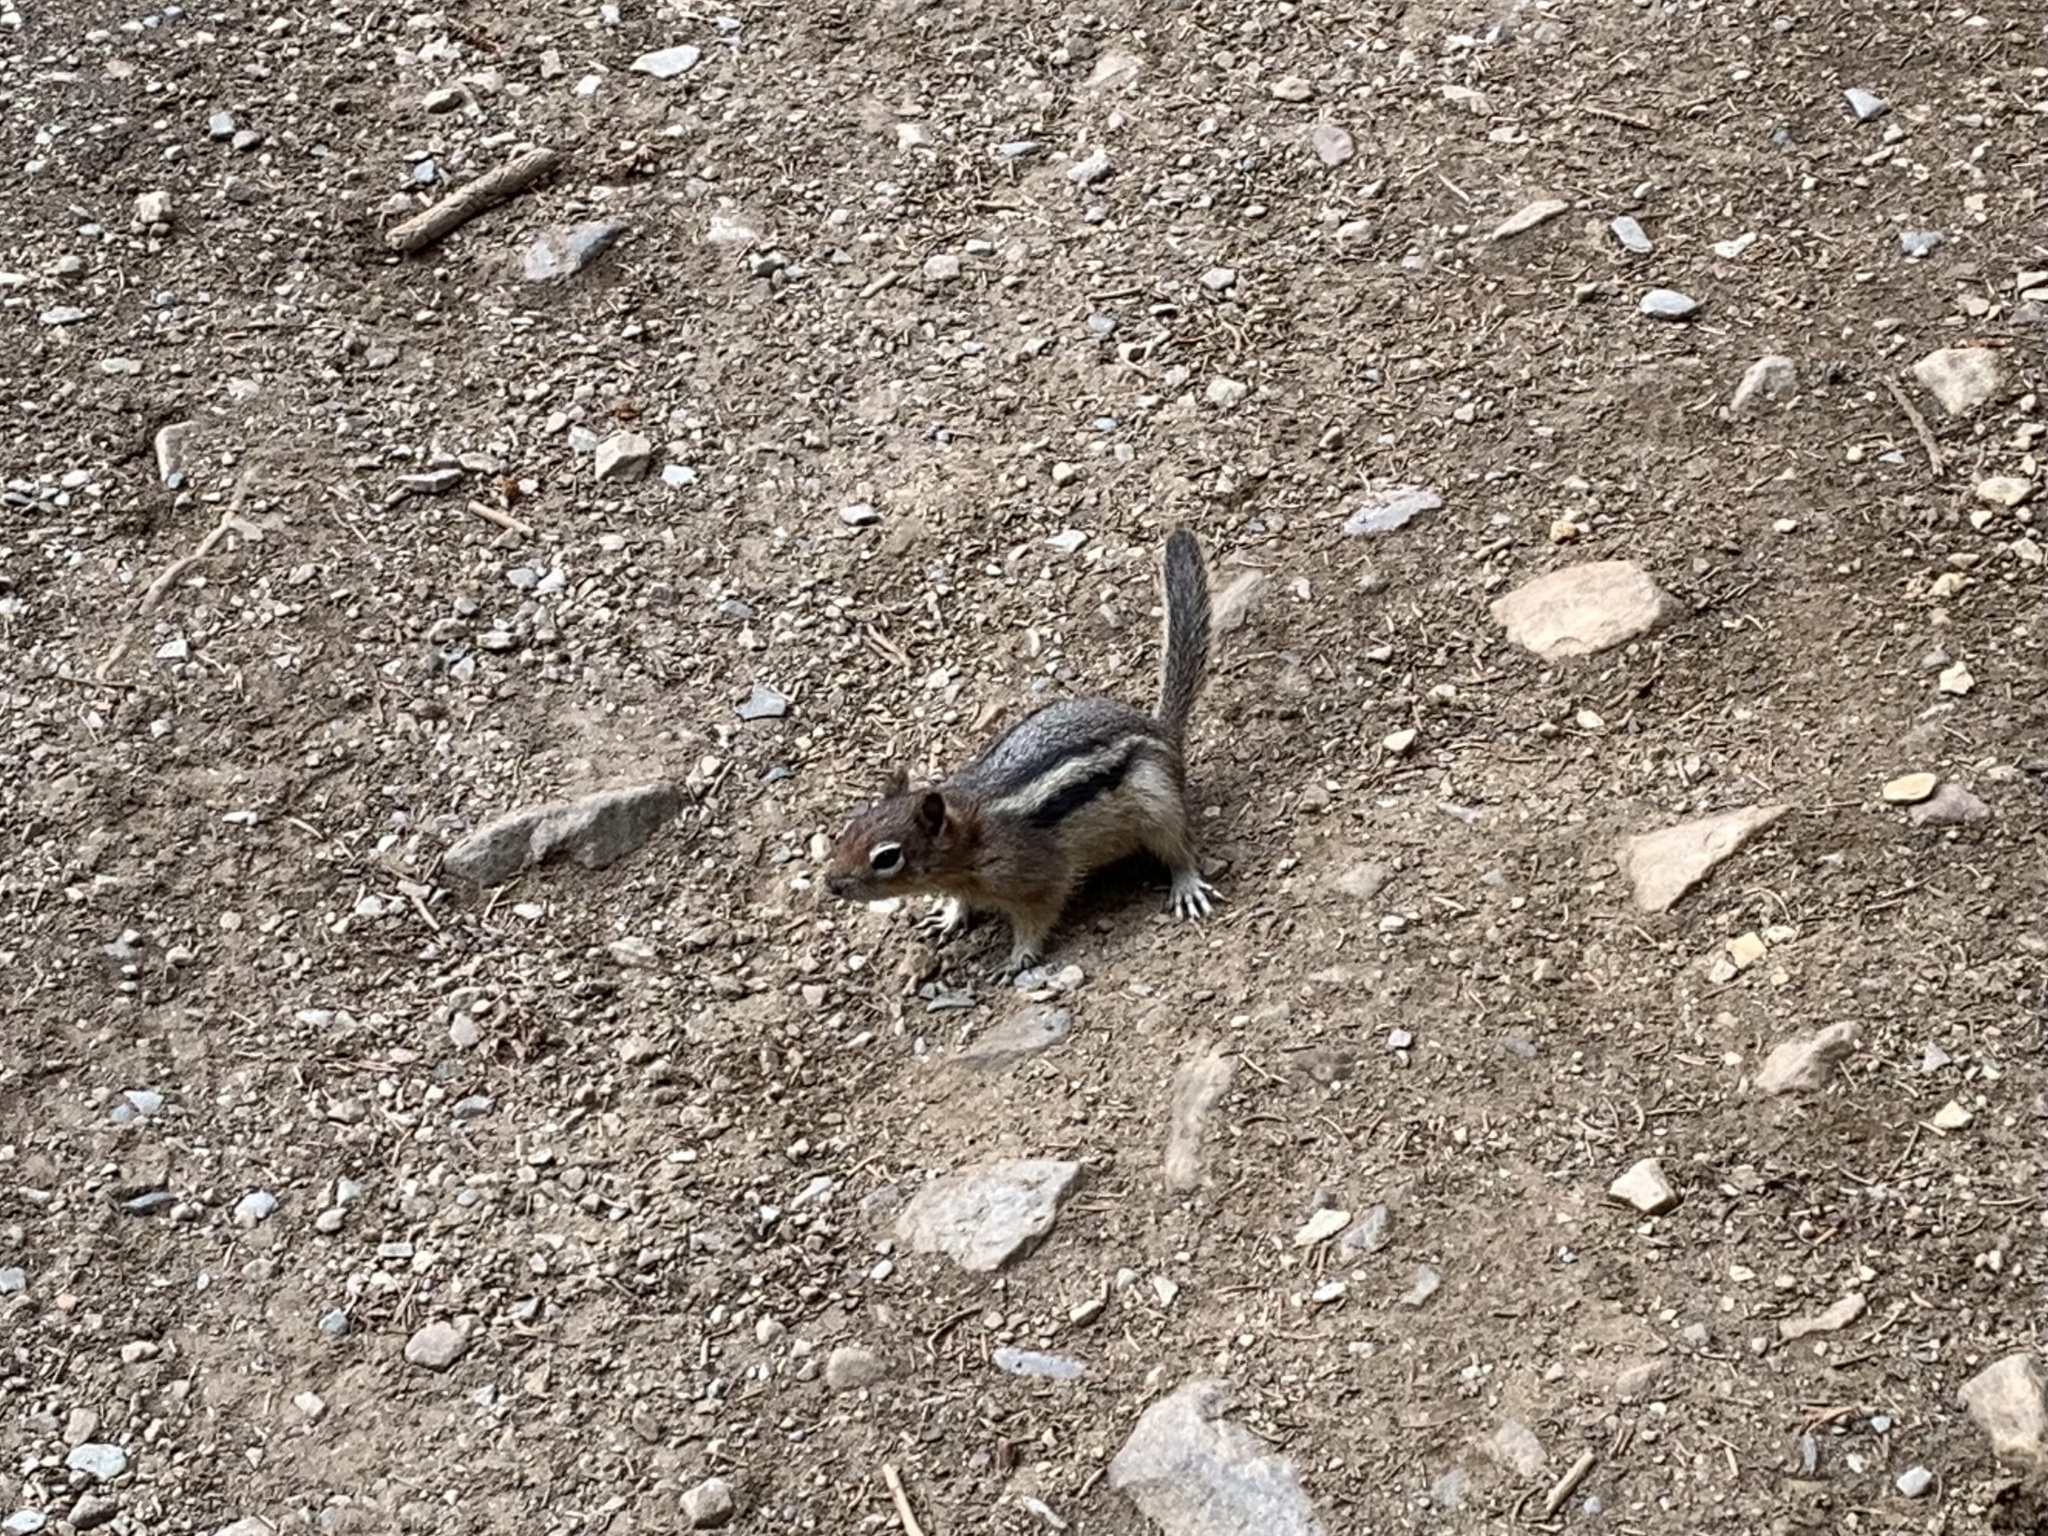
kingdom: Animalia
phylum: Chordata
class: Mammalia
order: Rodentia
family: Sciuridae
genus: Callospermophilus
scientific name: Callospermophilus lateralis
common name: Golden-mantled ground squirrel
